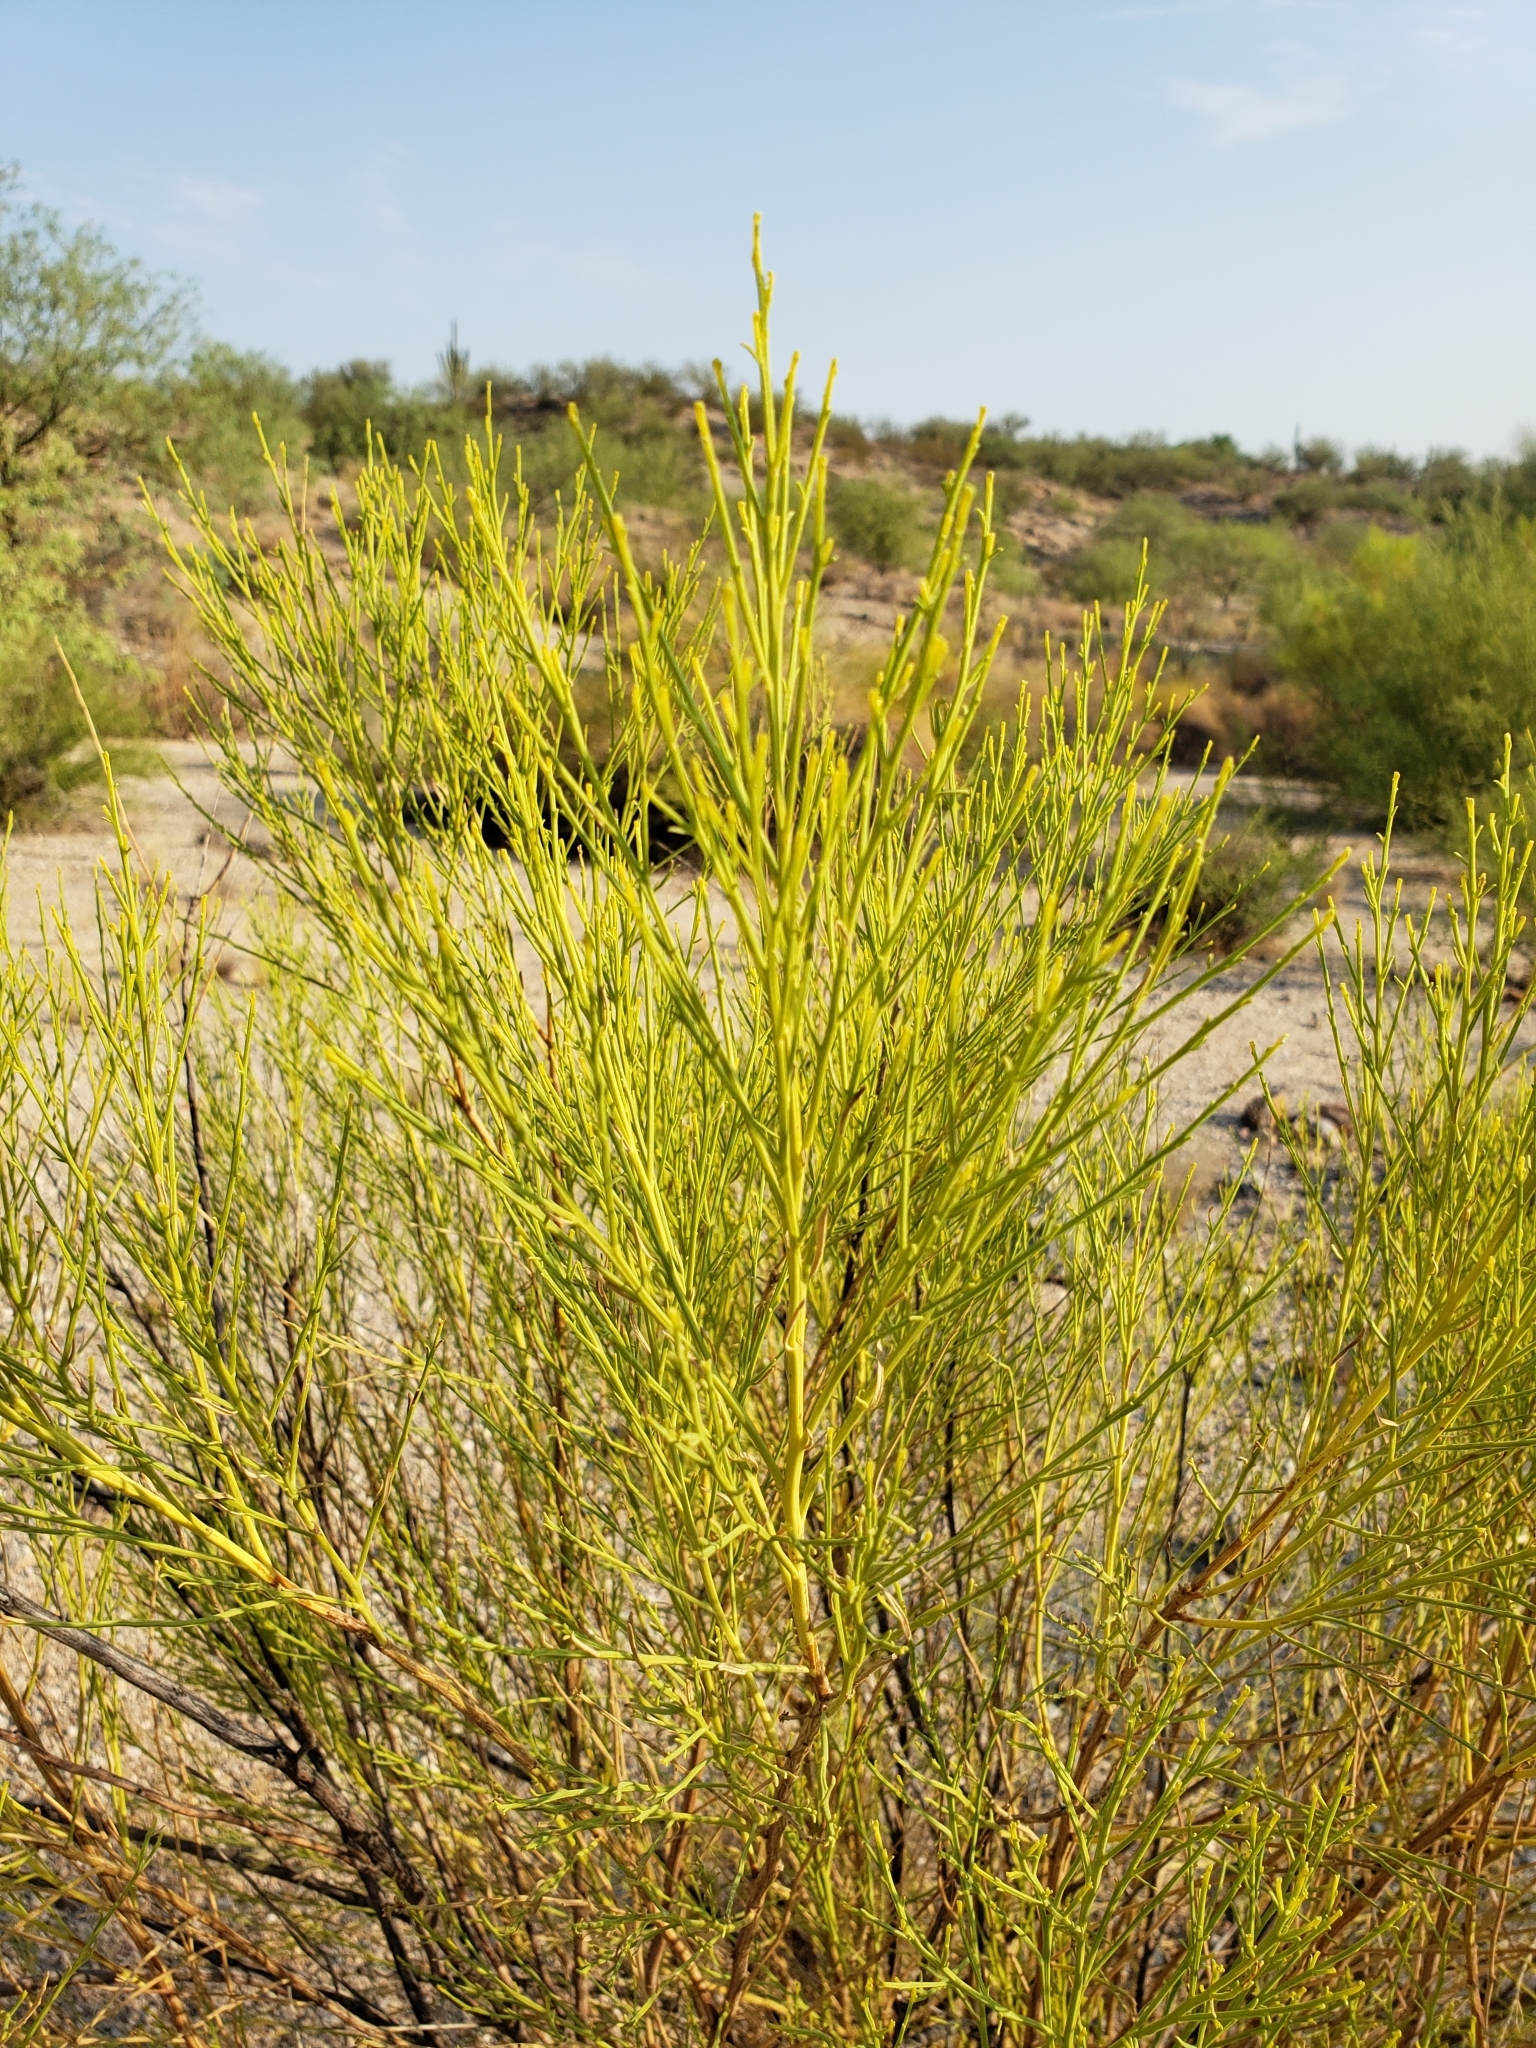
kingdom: Plantae
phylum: Tracheophyta
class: Magnoliopsida
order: Asterales
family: Asteraceae
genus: Baccharis
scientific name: Baccharis sarothroides
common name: Desert-broom
